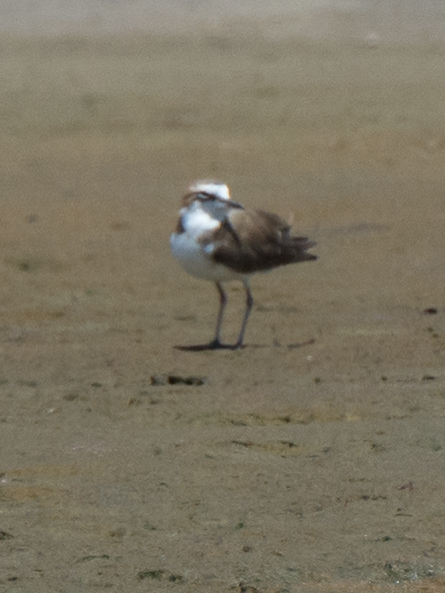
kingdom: Animalia
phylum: Chordata
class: Aves
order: Charadriiformes
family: Charadriidae
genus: Anarhynchus
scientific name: Anarhynchus
